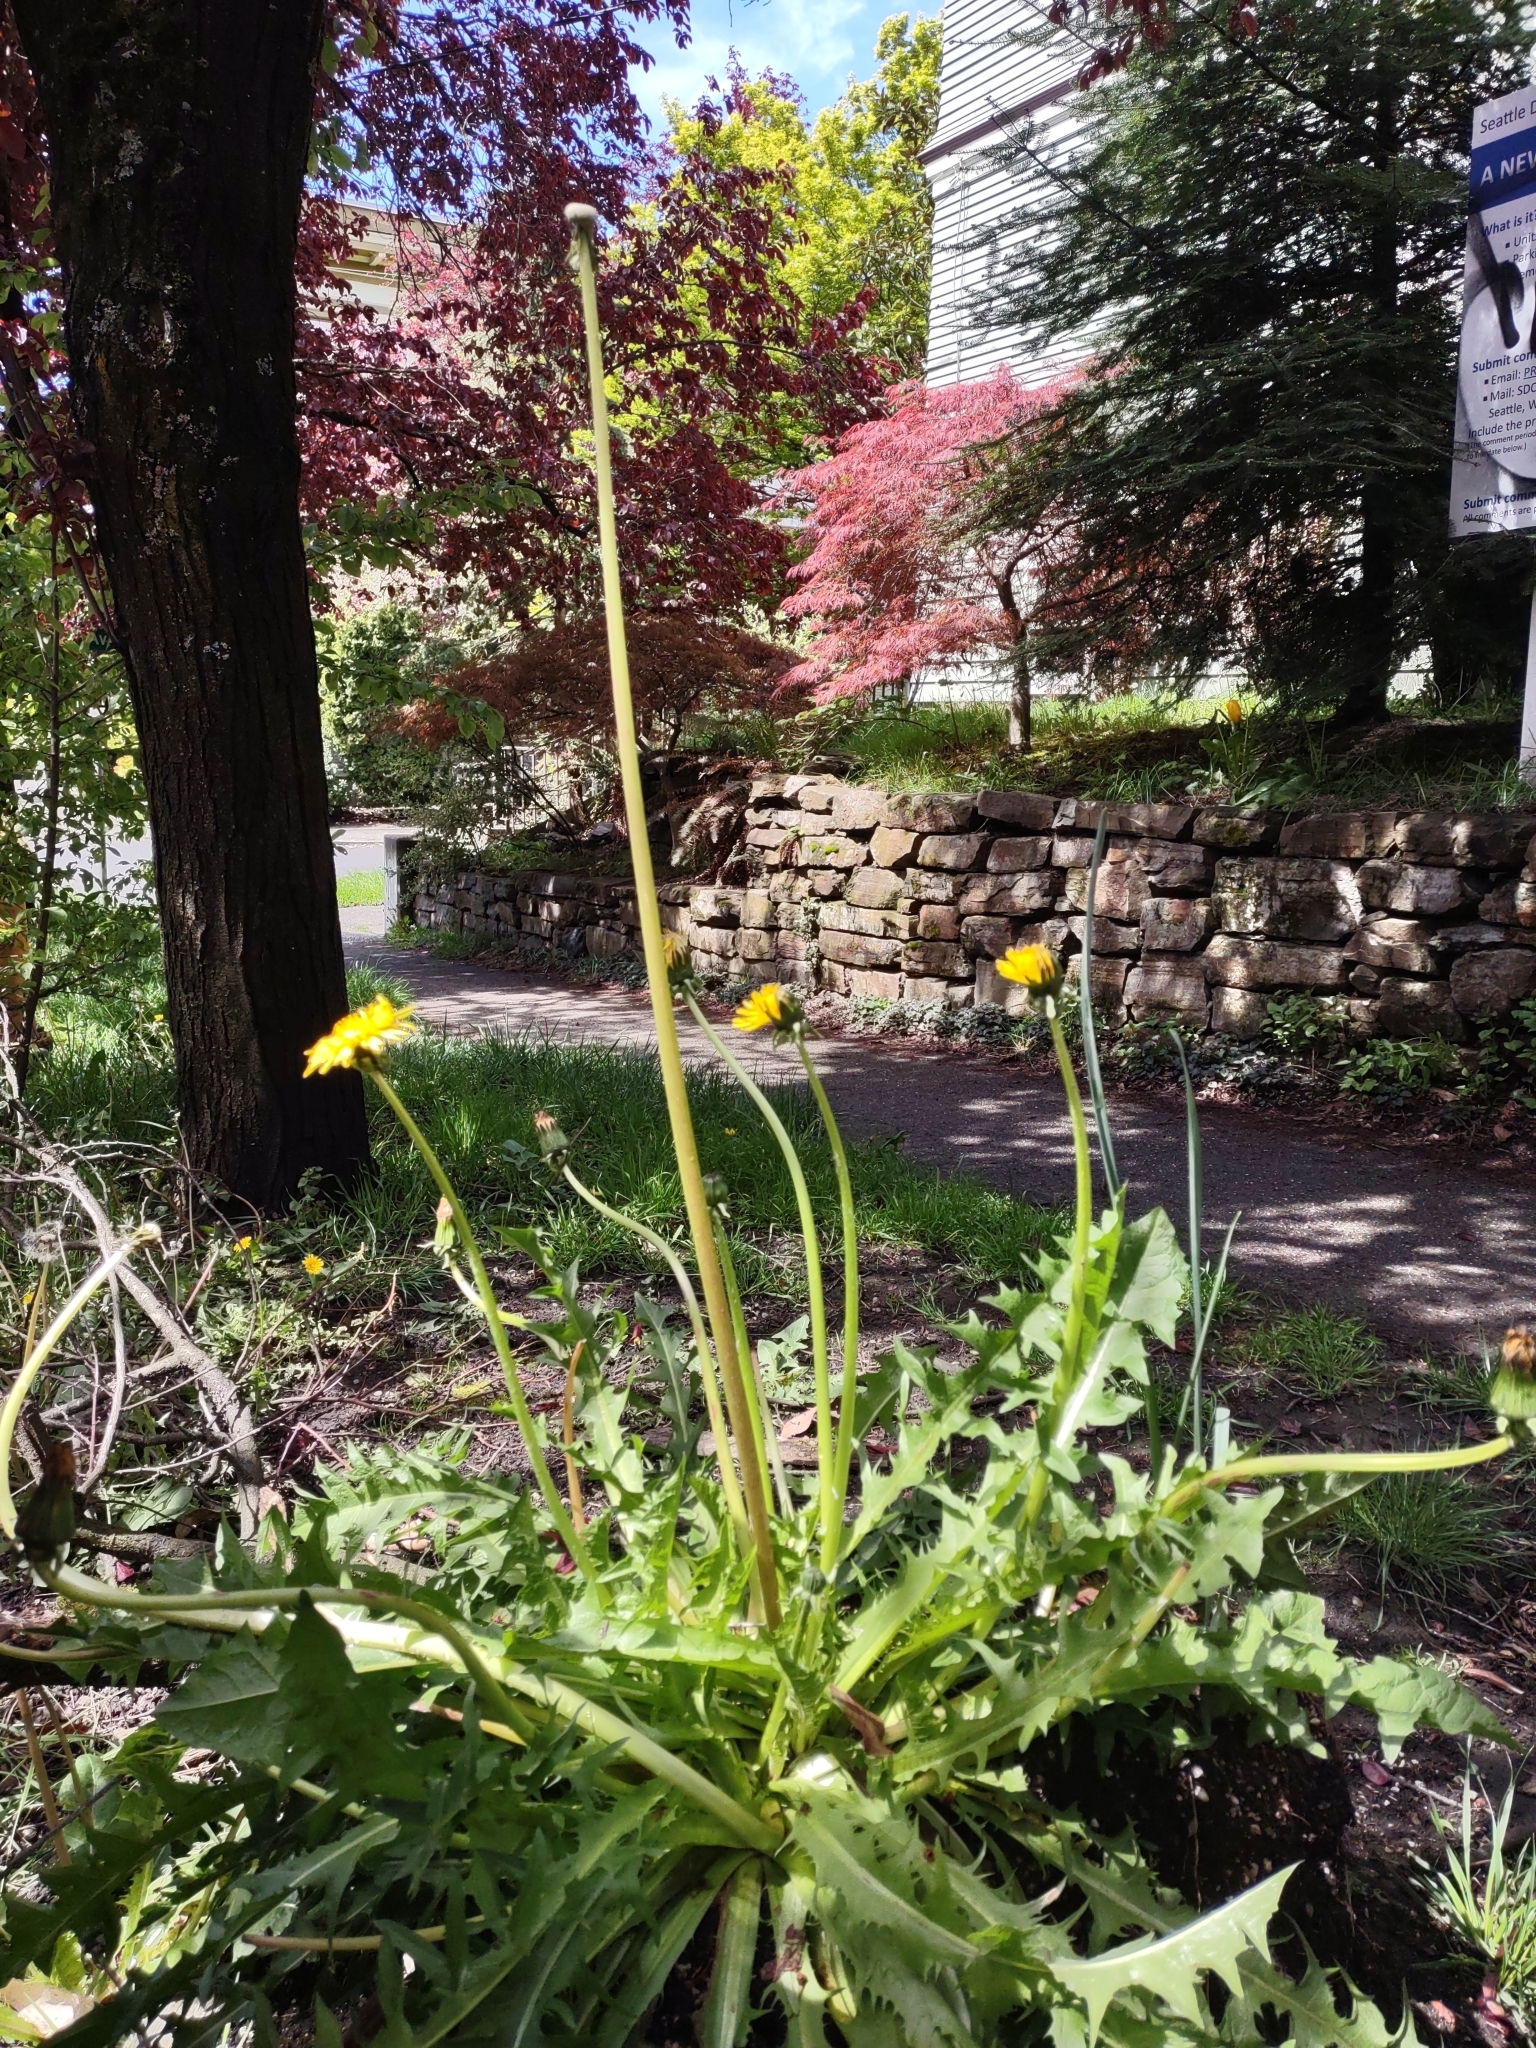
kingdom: Plantae
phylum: Tracheophyta
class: Magnoliopsida
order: Asterales
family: Asteraceae
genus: Taraxacum
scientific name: Taraxacum officinale
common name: Common dandelion
